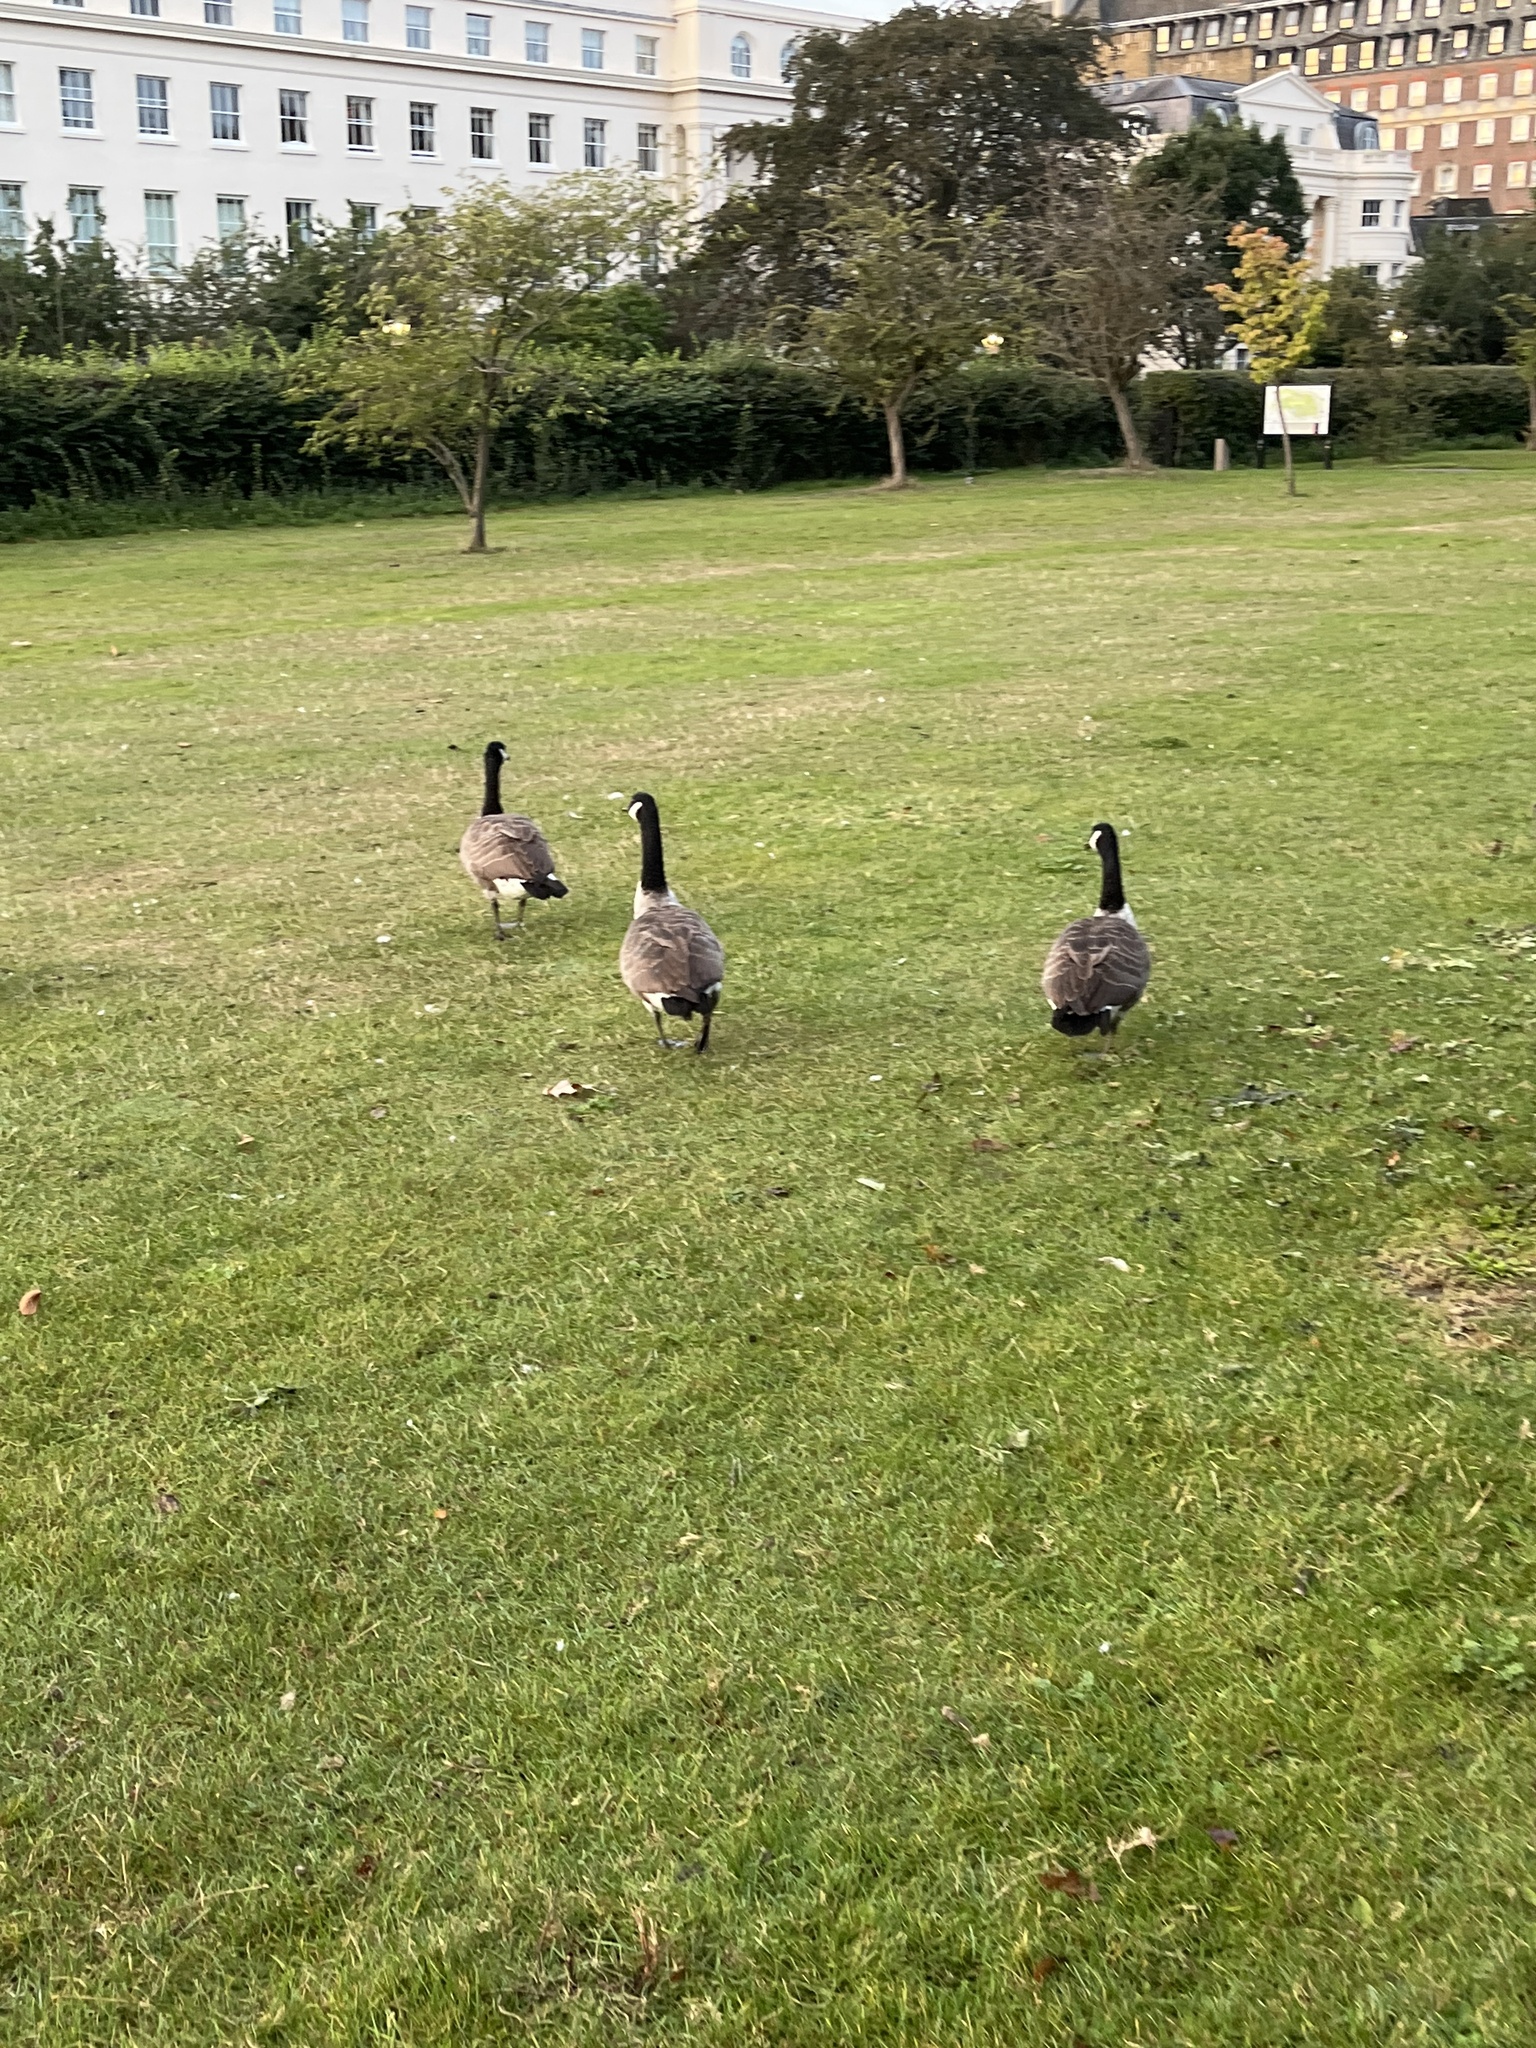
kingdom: Animalia
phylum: Chordata
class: Aves
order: Anseriformes
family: Anatidae
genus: Branta
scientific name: Branta canadensis
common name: Canada goose
